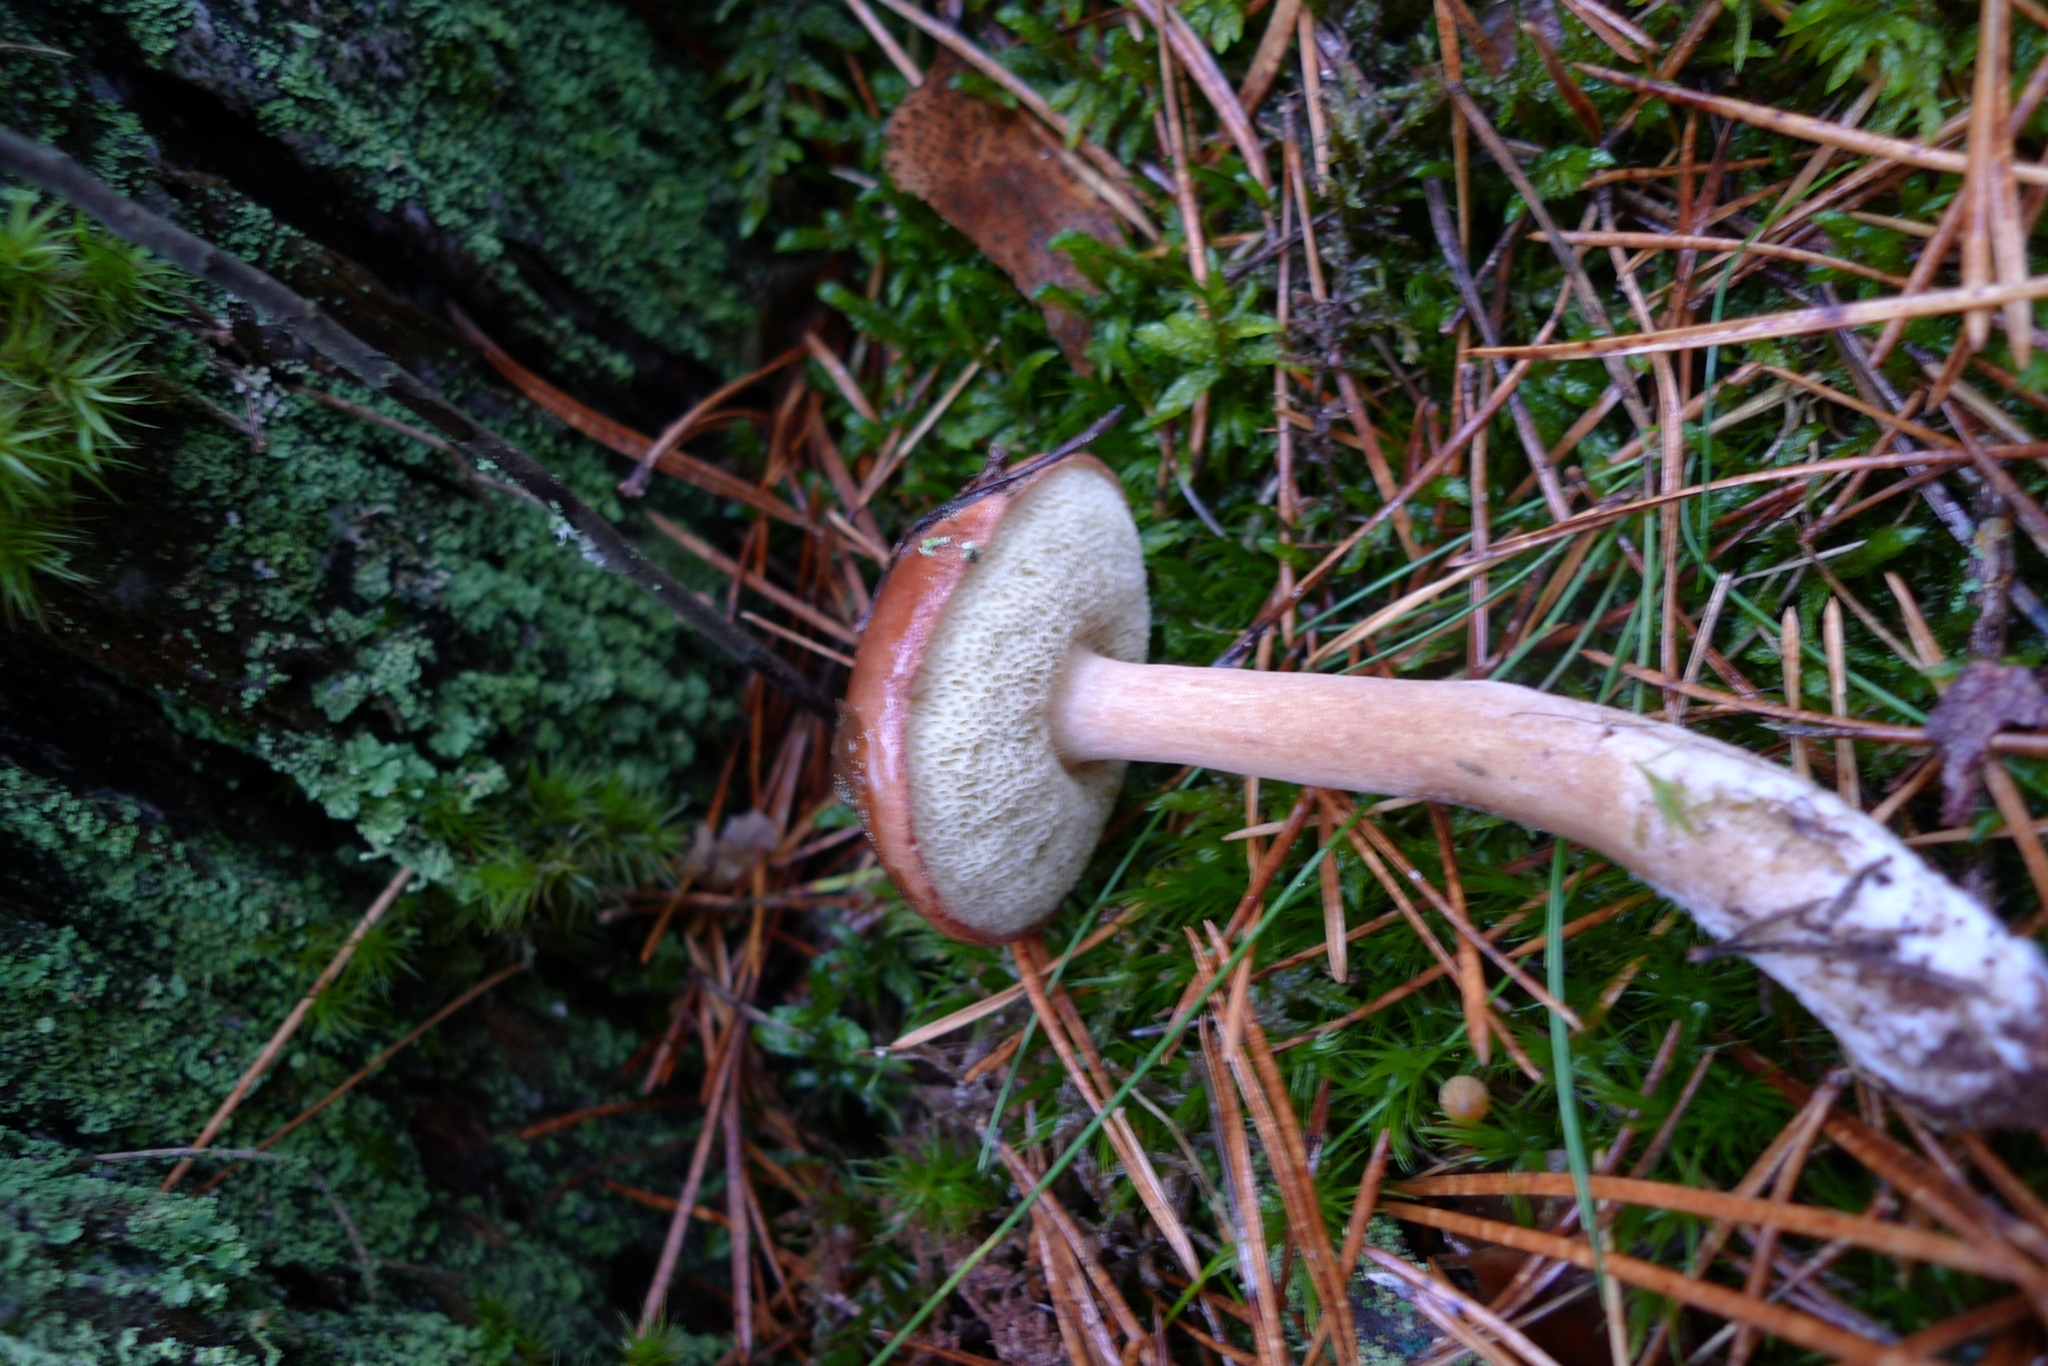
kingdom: Fungi
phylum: Basidiomycota
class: Agaricomycetes
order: Boletales
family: Boletaceae
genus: Imleria
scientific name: Imleria badia
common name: Bay bolete
